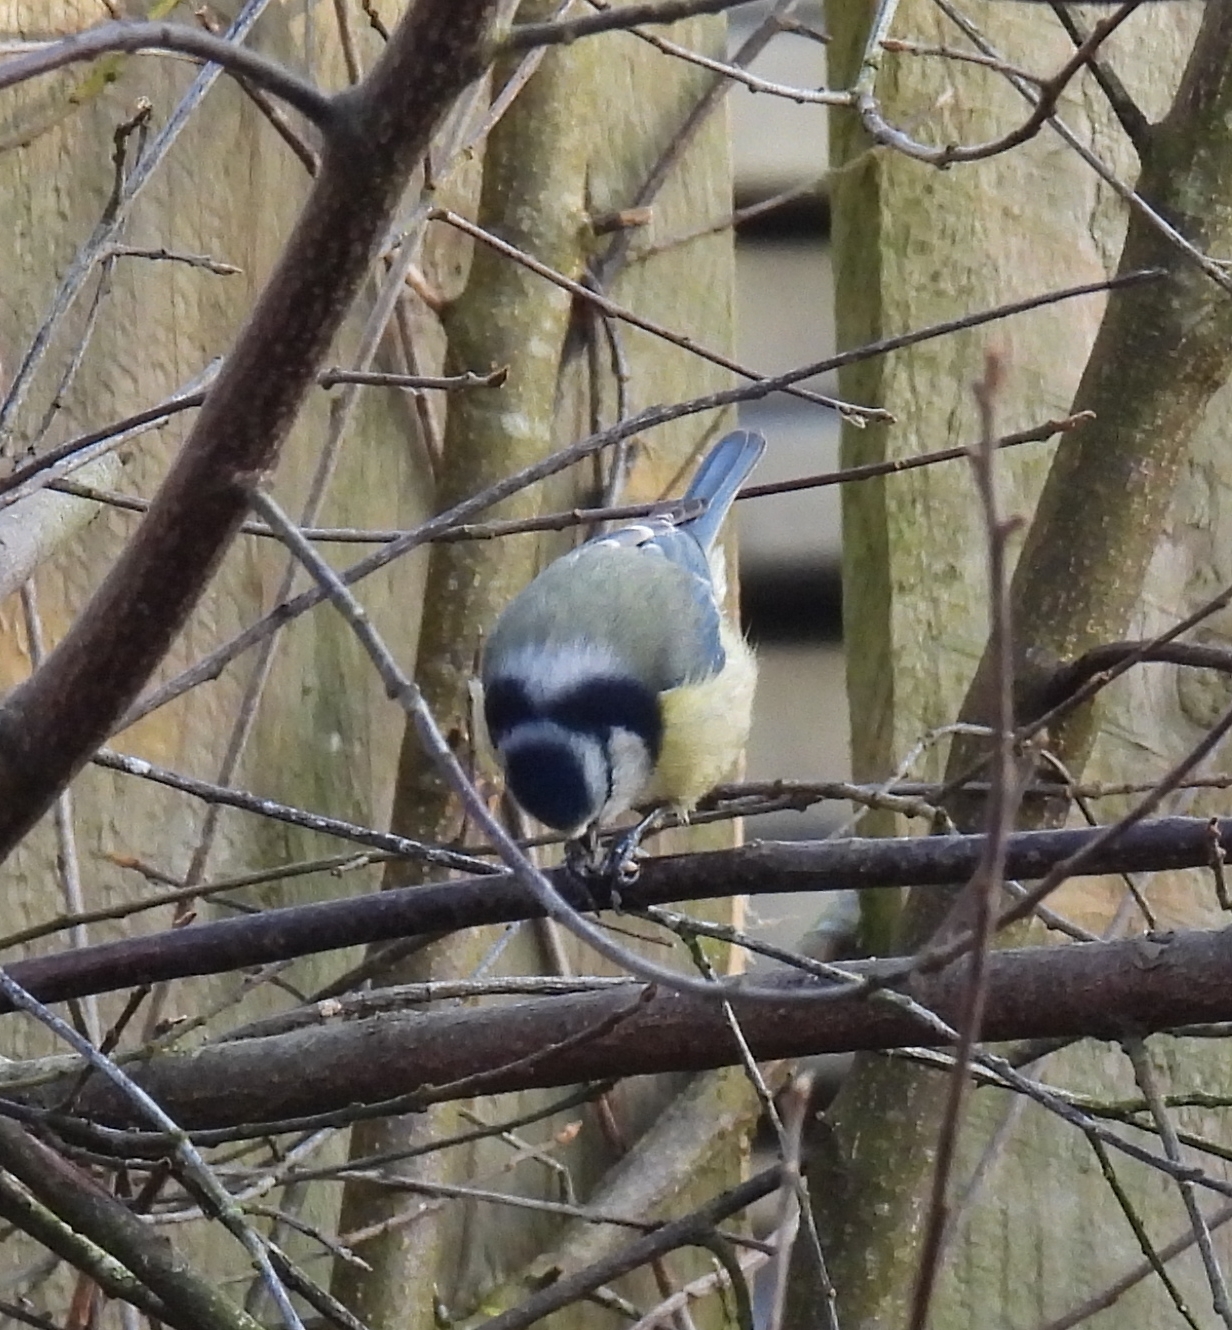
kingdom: Animalia
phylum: Chordata
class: Aves
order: Passeriformes
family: Paridae
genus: Cyanistes
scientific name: Cyanistes caeruleus
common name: Eurasian blue tit
